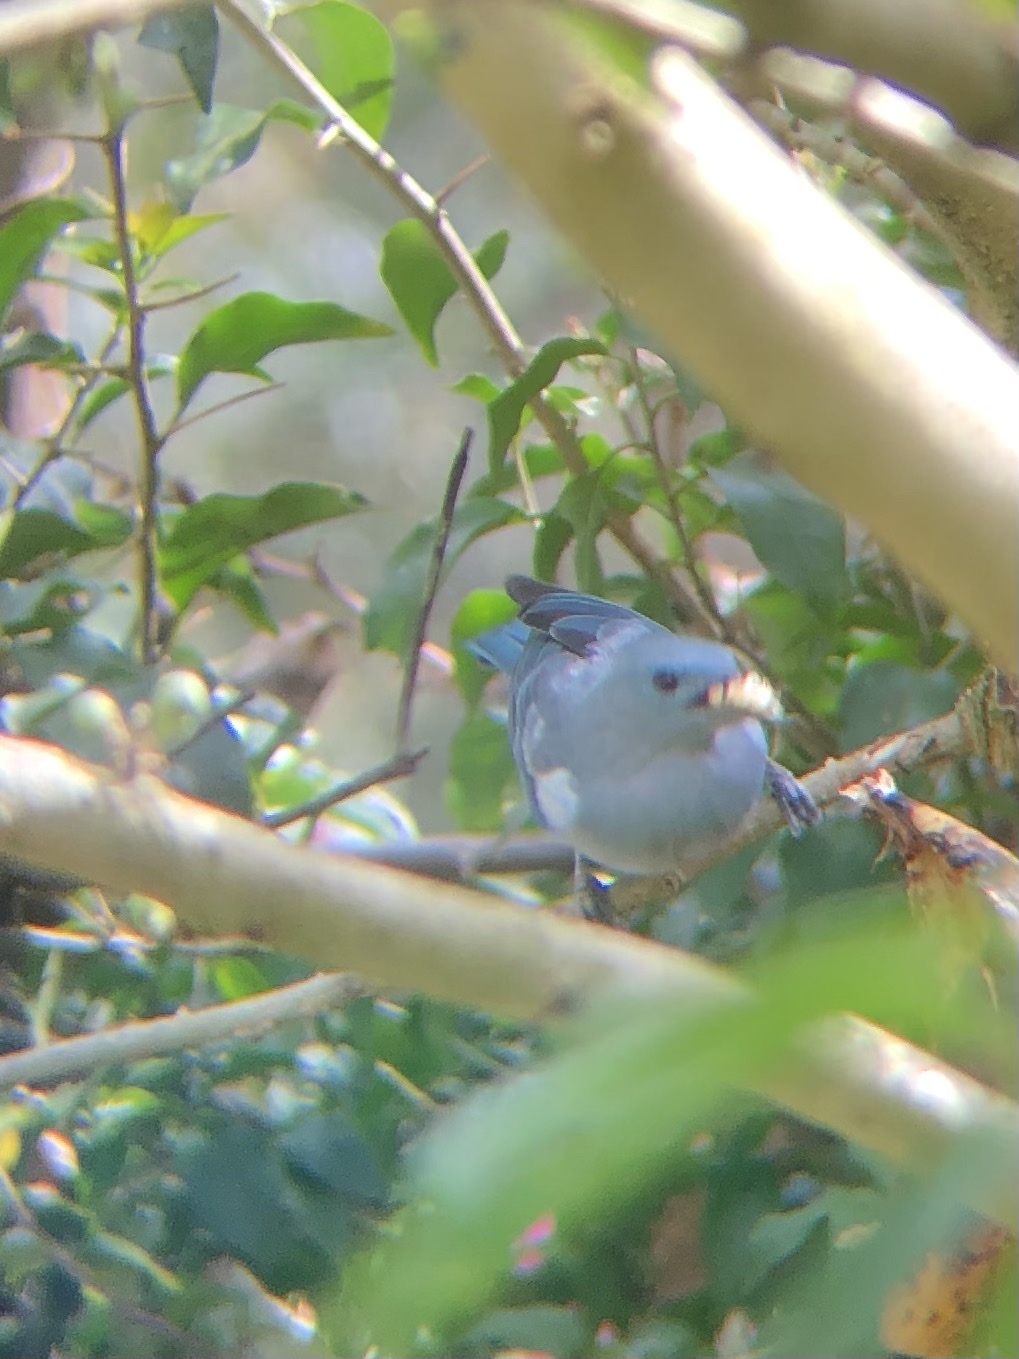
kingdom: Animalia
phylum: Chordata
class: Aves
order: Passeriformes
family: Thraupidae
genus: Thraupis
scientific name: Thraupis episcopus
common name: Blue-grey tanager
